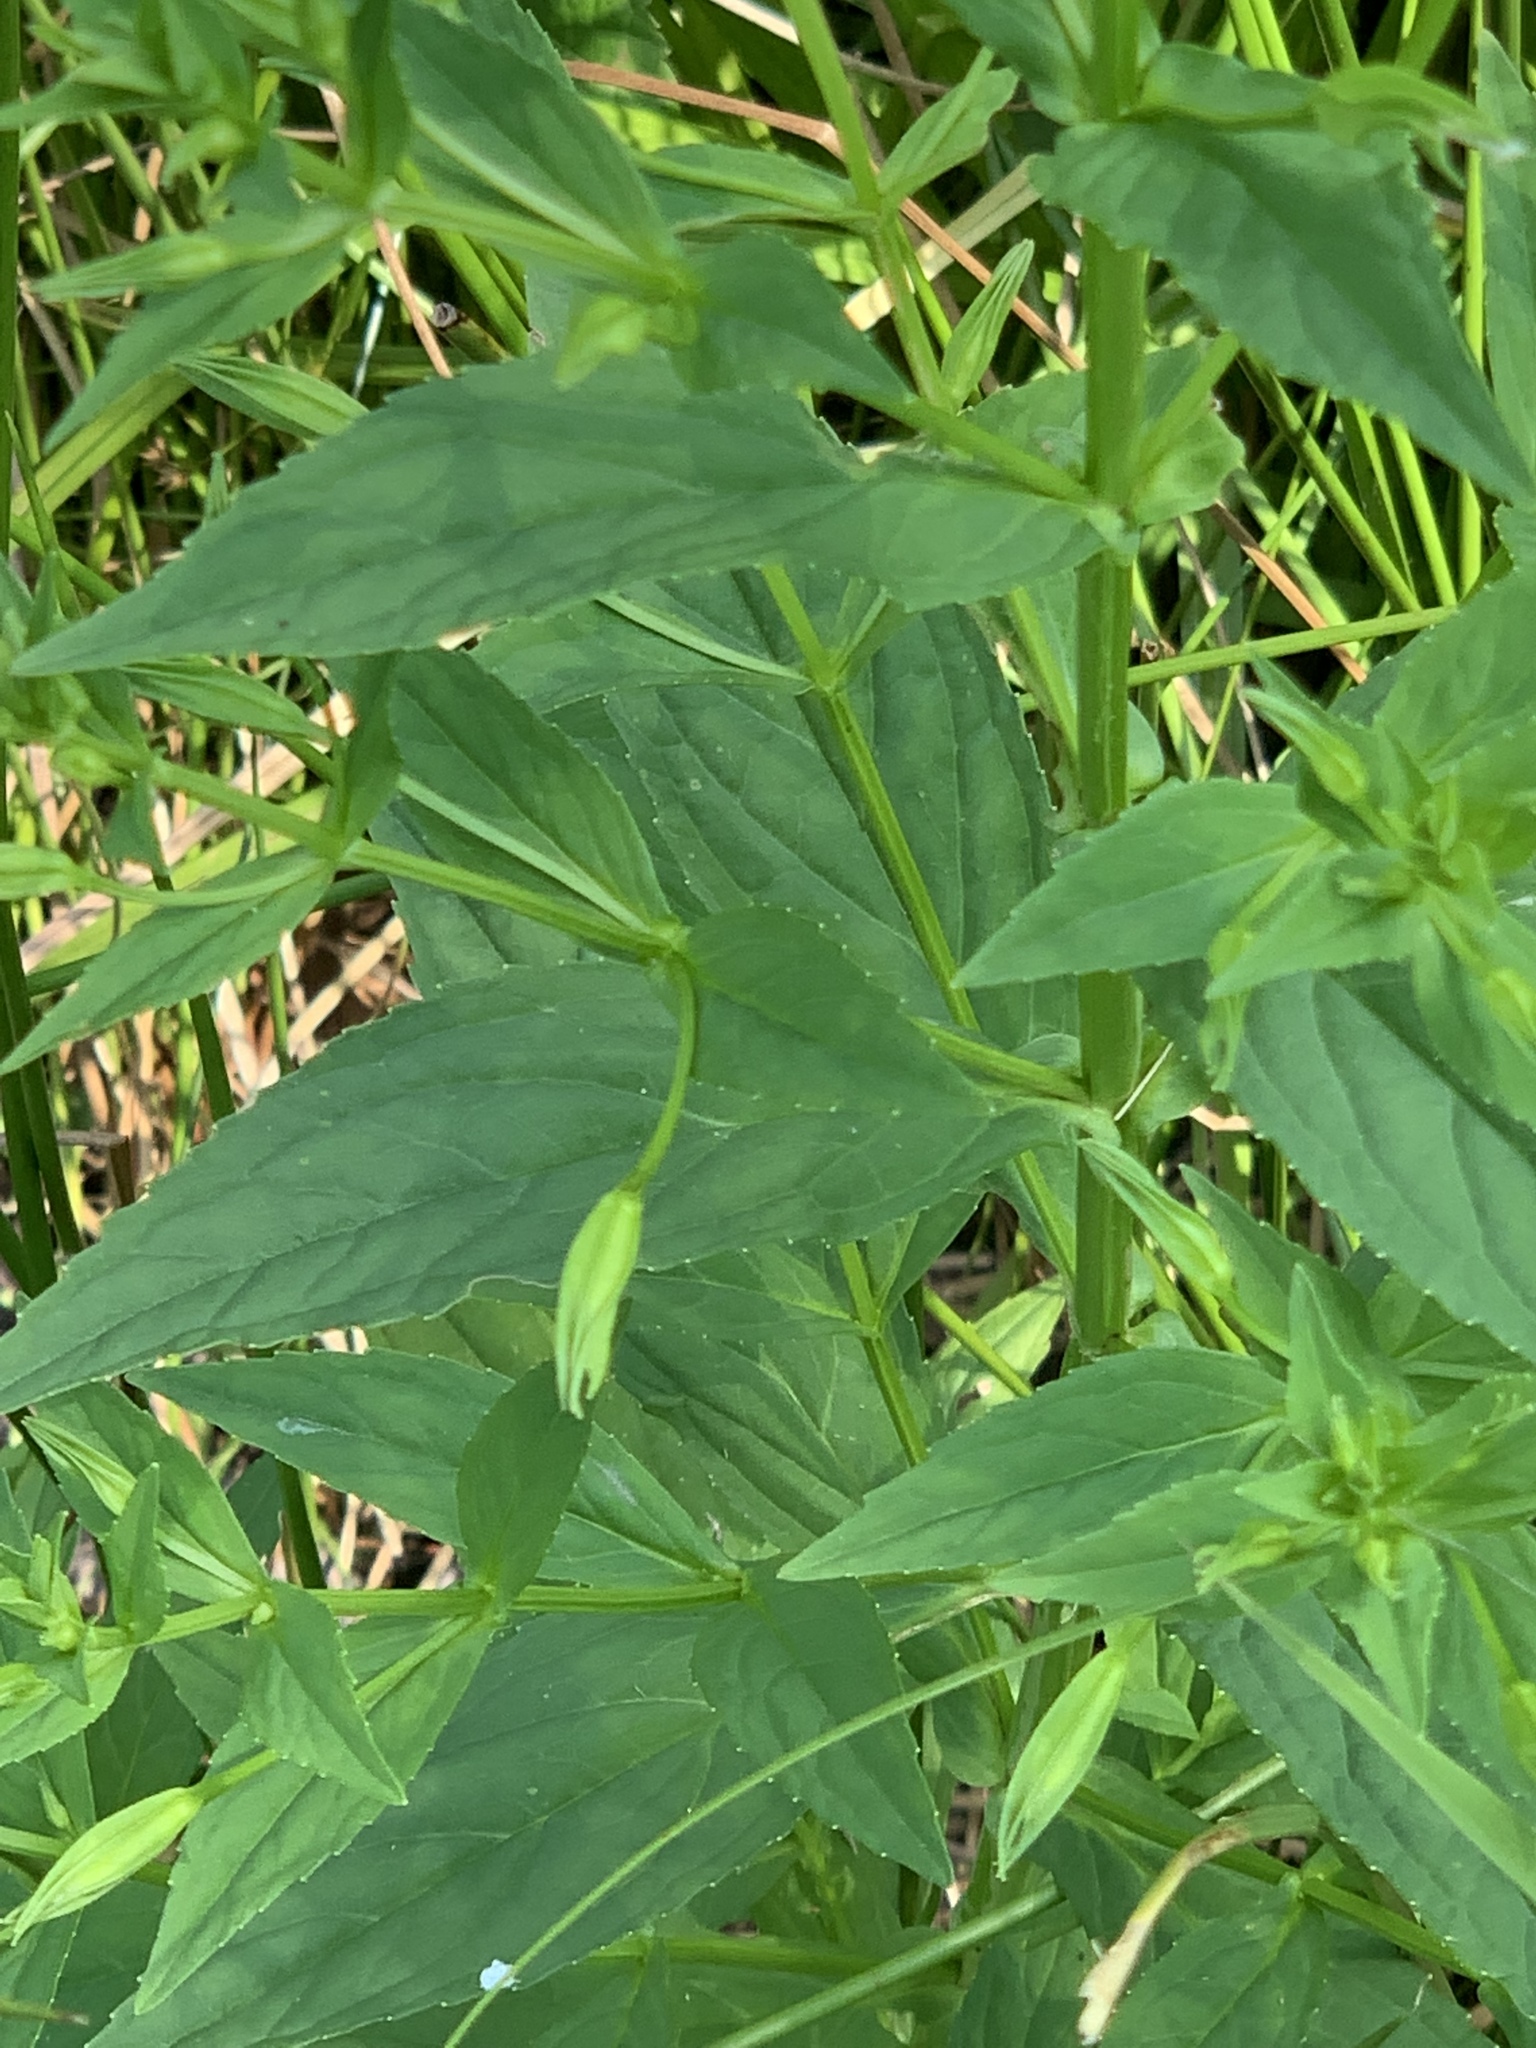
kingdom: Plantae
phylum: Tracheophyta
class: Magnoliopsida
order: Lamiales
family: Phrymaceae
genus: Mimulus
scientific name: Mimulus ringens
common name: Allegheny monkeyflower
